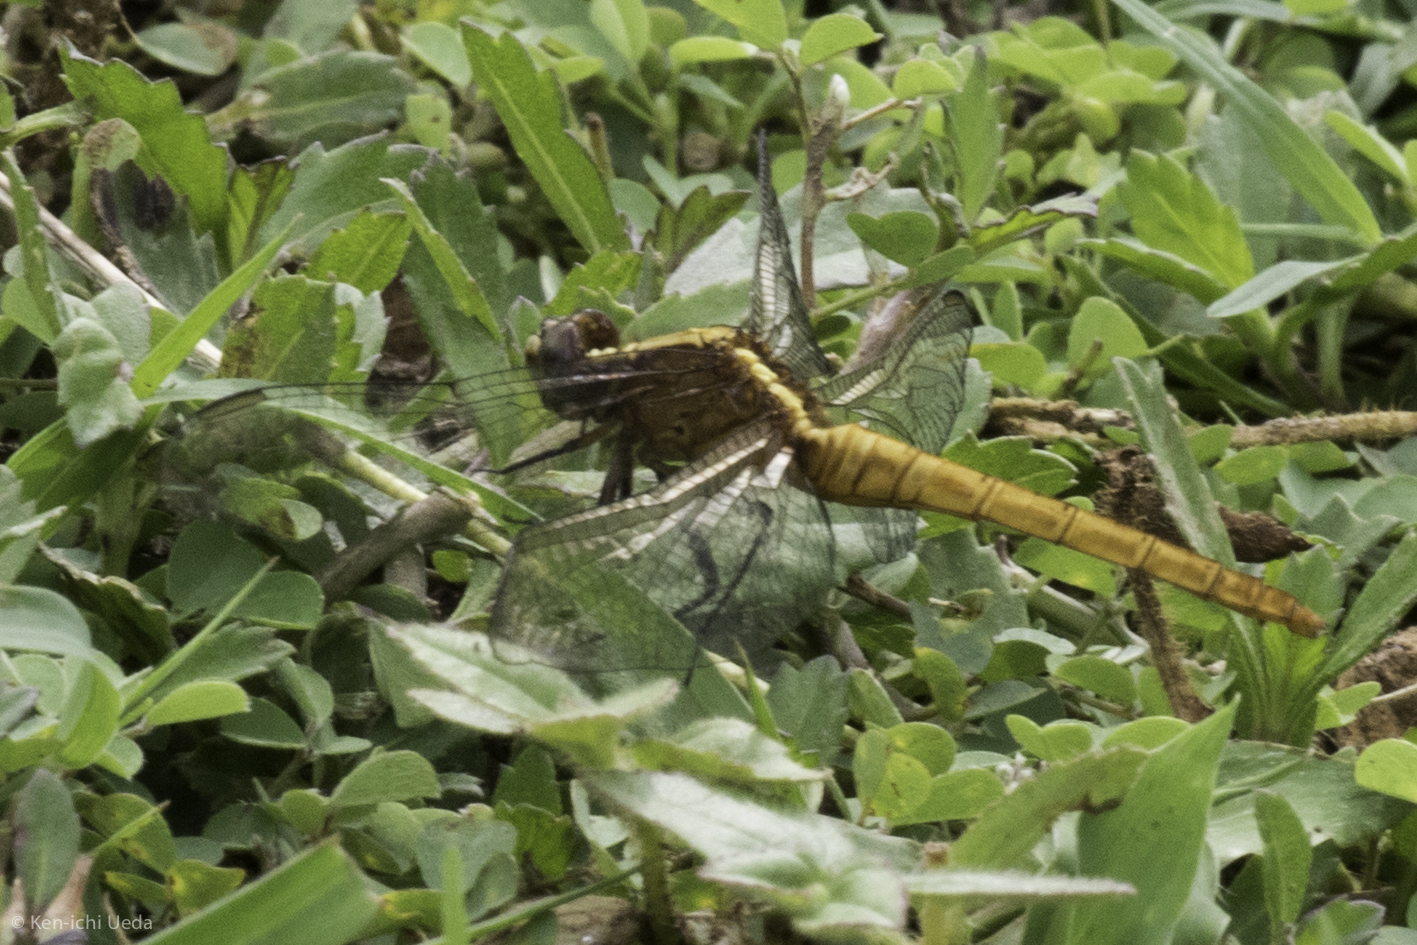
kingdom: Animalia
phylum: Arthropoda
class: Insecta
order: Odonata
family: Libellulidae
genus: Erythemis
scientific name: Erythemis peruviana
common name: Flame-tailed pondhawk
